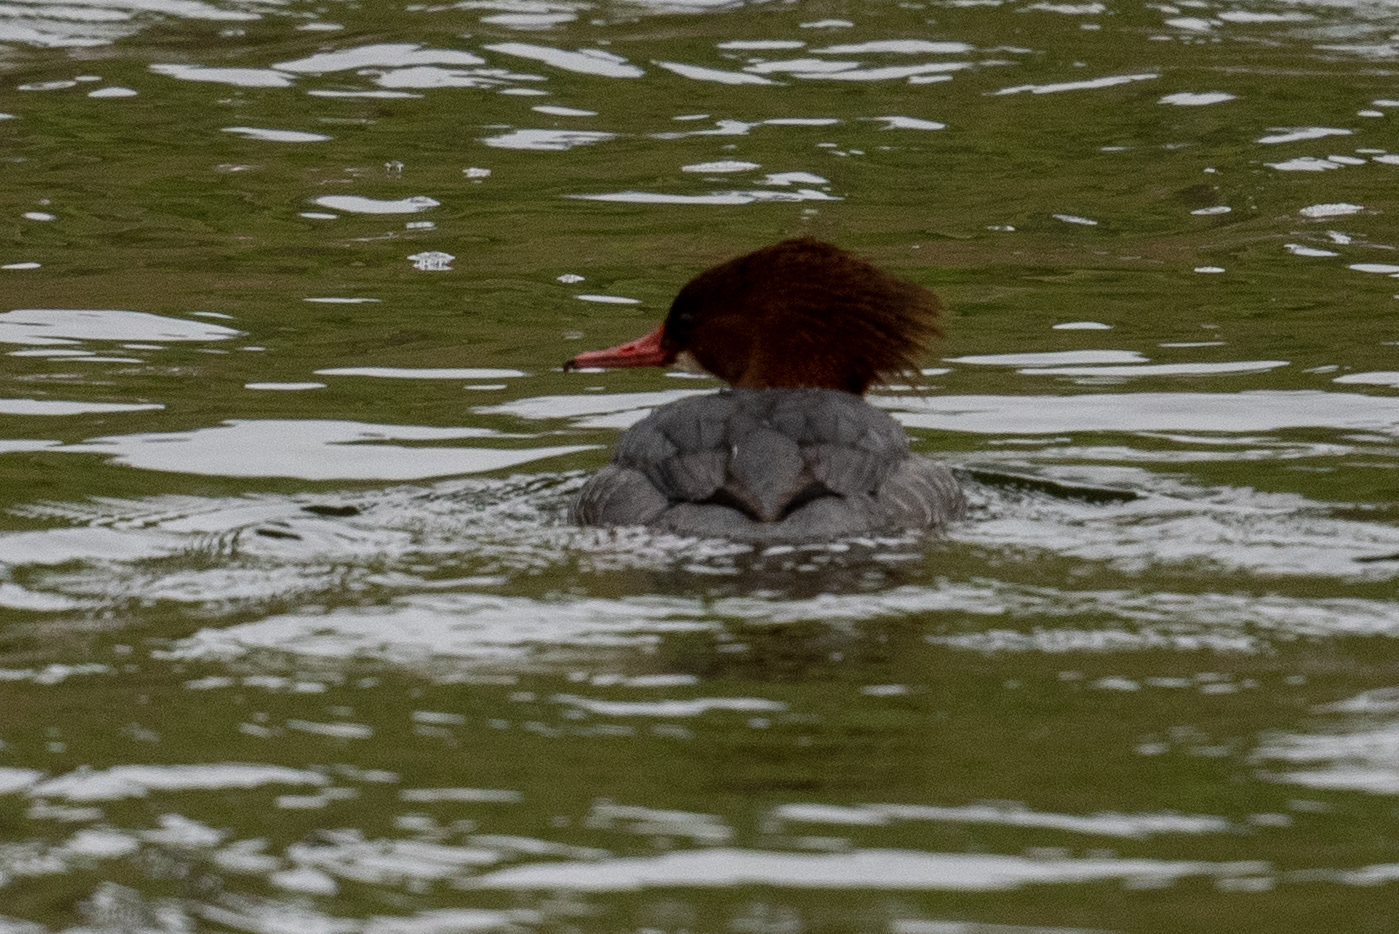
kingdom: Animalia
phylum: Chordata
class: Aves
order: Anseriformes
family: Anatidae
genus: Mergus
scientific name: Mergus merganser
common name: Common merganser
